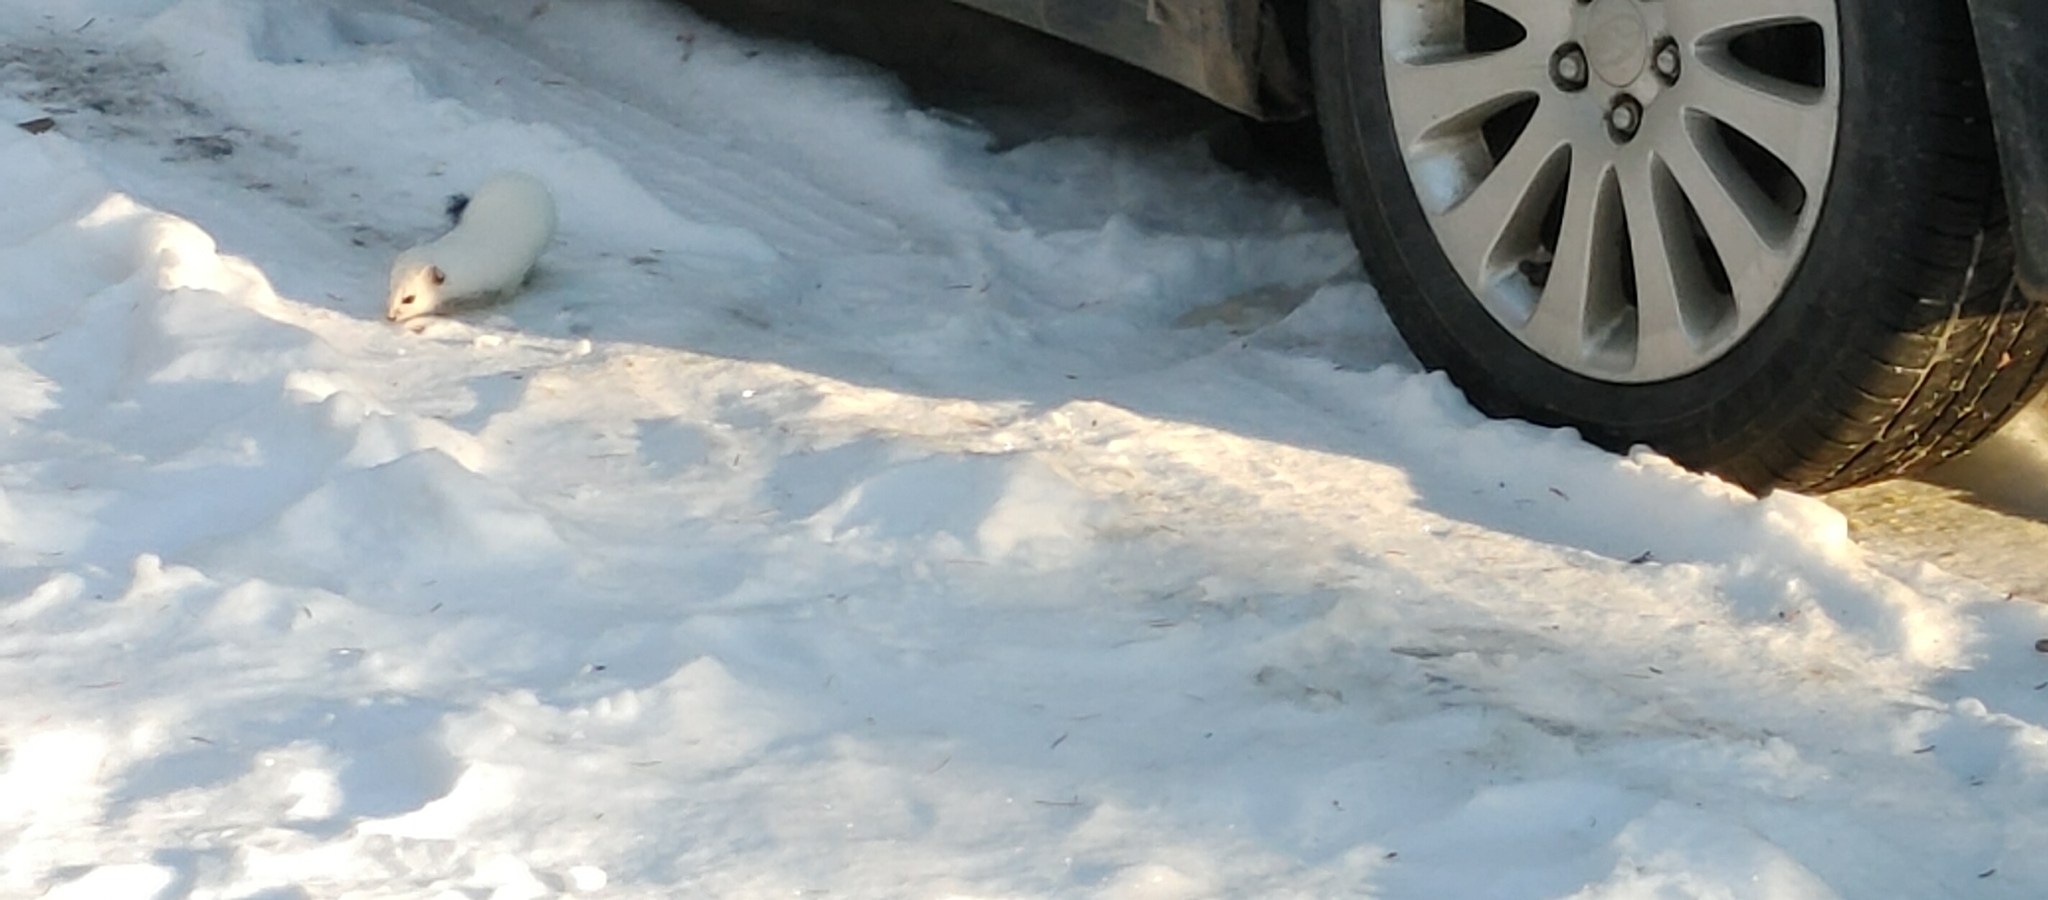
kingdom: Animalia
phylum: Chordata
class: Mammalia
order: Carnivora
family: Mustelidae
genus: Mustela
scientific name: Mustela erminea
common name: Stoat
